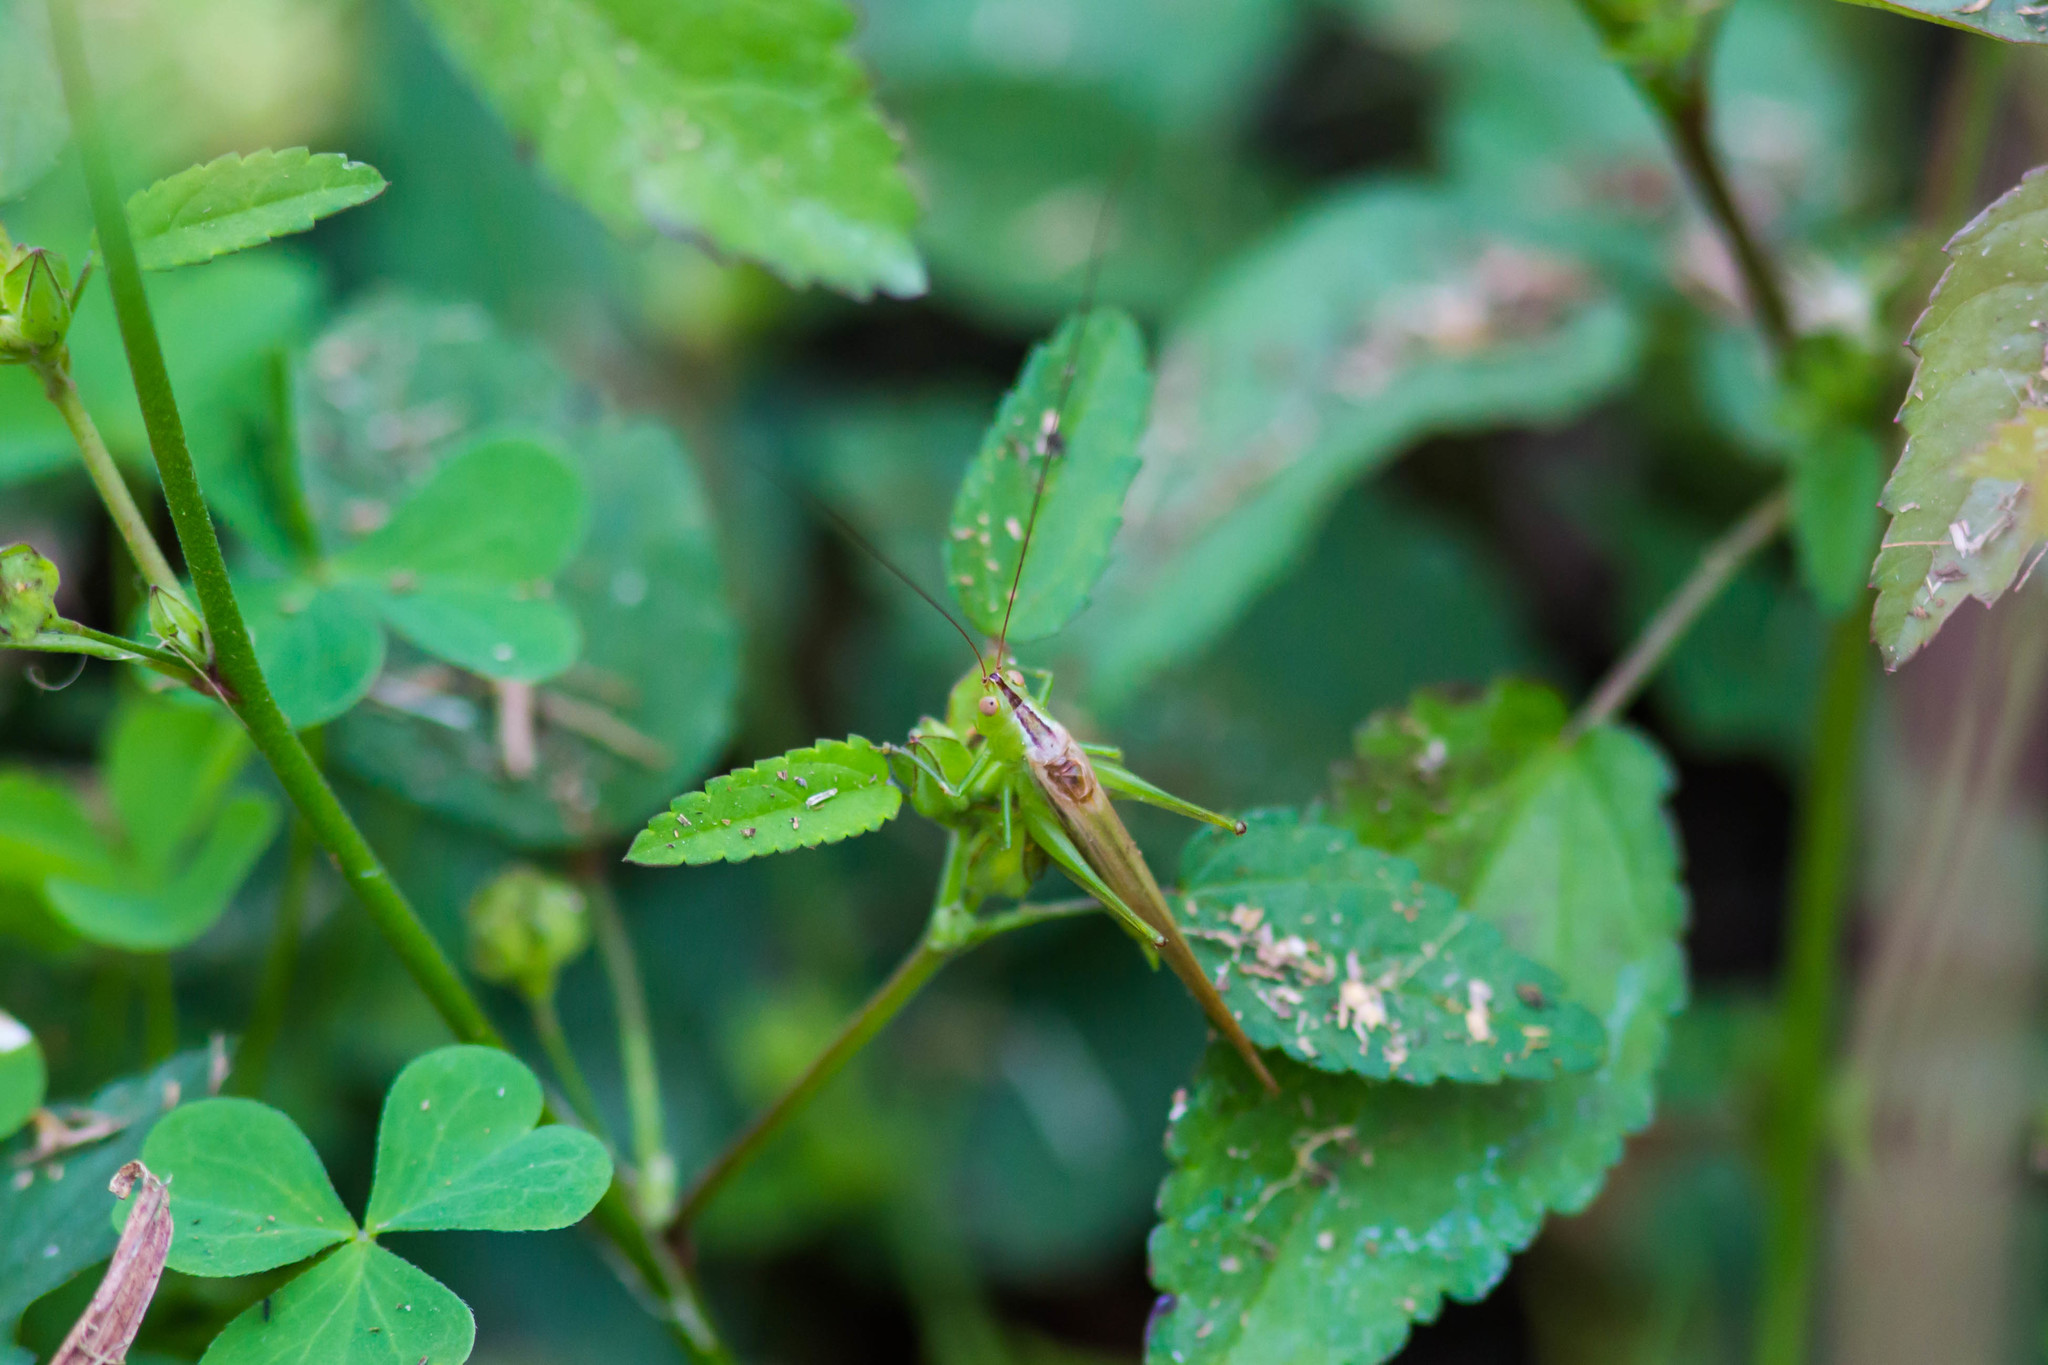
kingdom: Animalia
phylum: Arthropoda
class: Insecta
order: Orthoptera
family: Tettigoniidae
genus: Conocephalus
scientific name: Conocephalus fasciatus
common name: Slender meadow katydid
